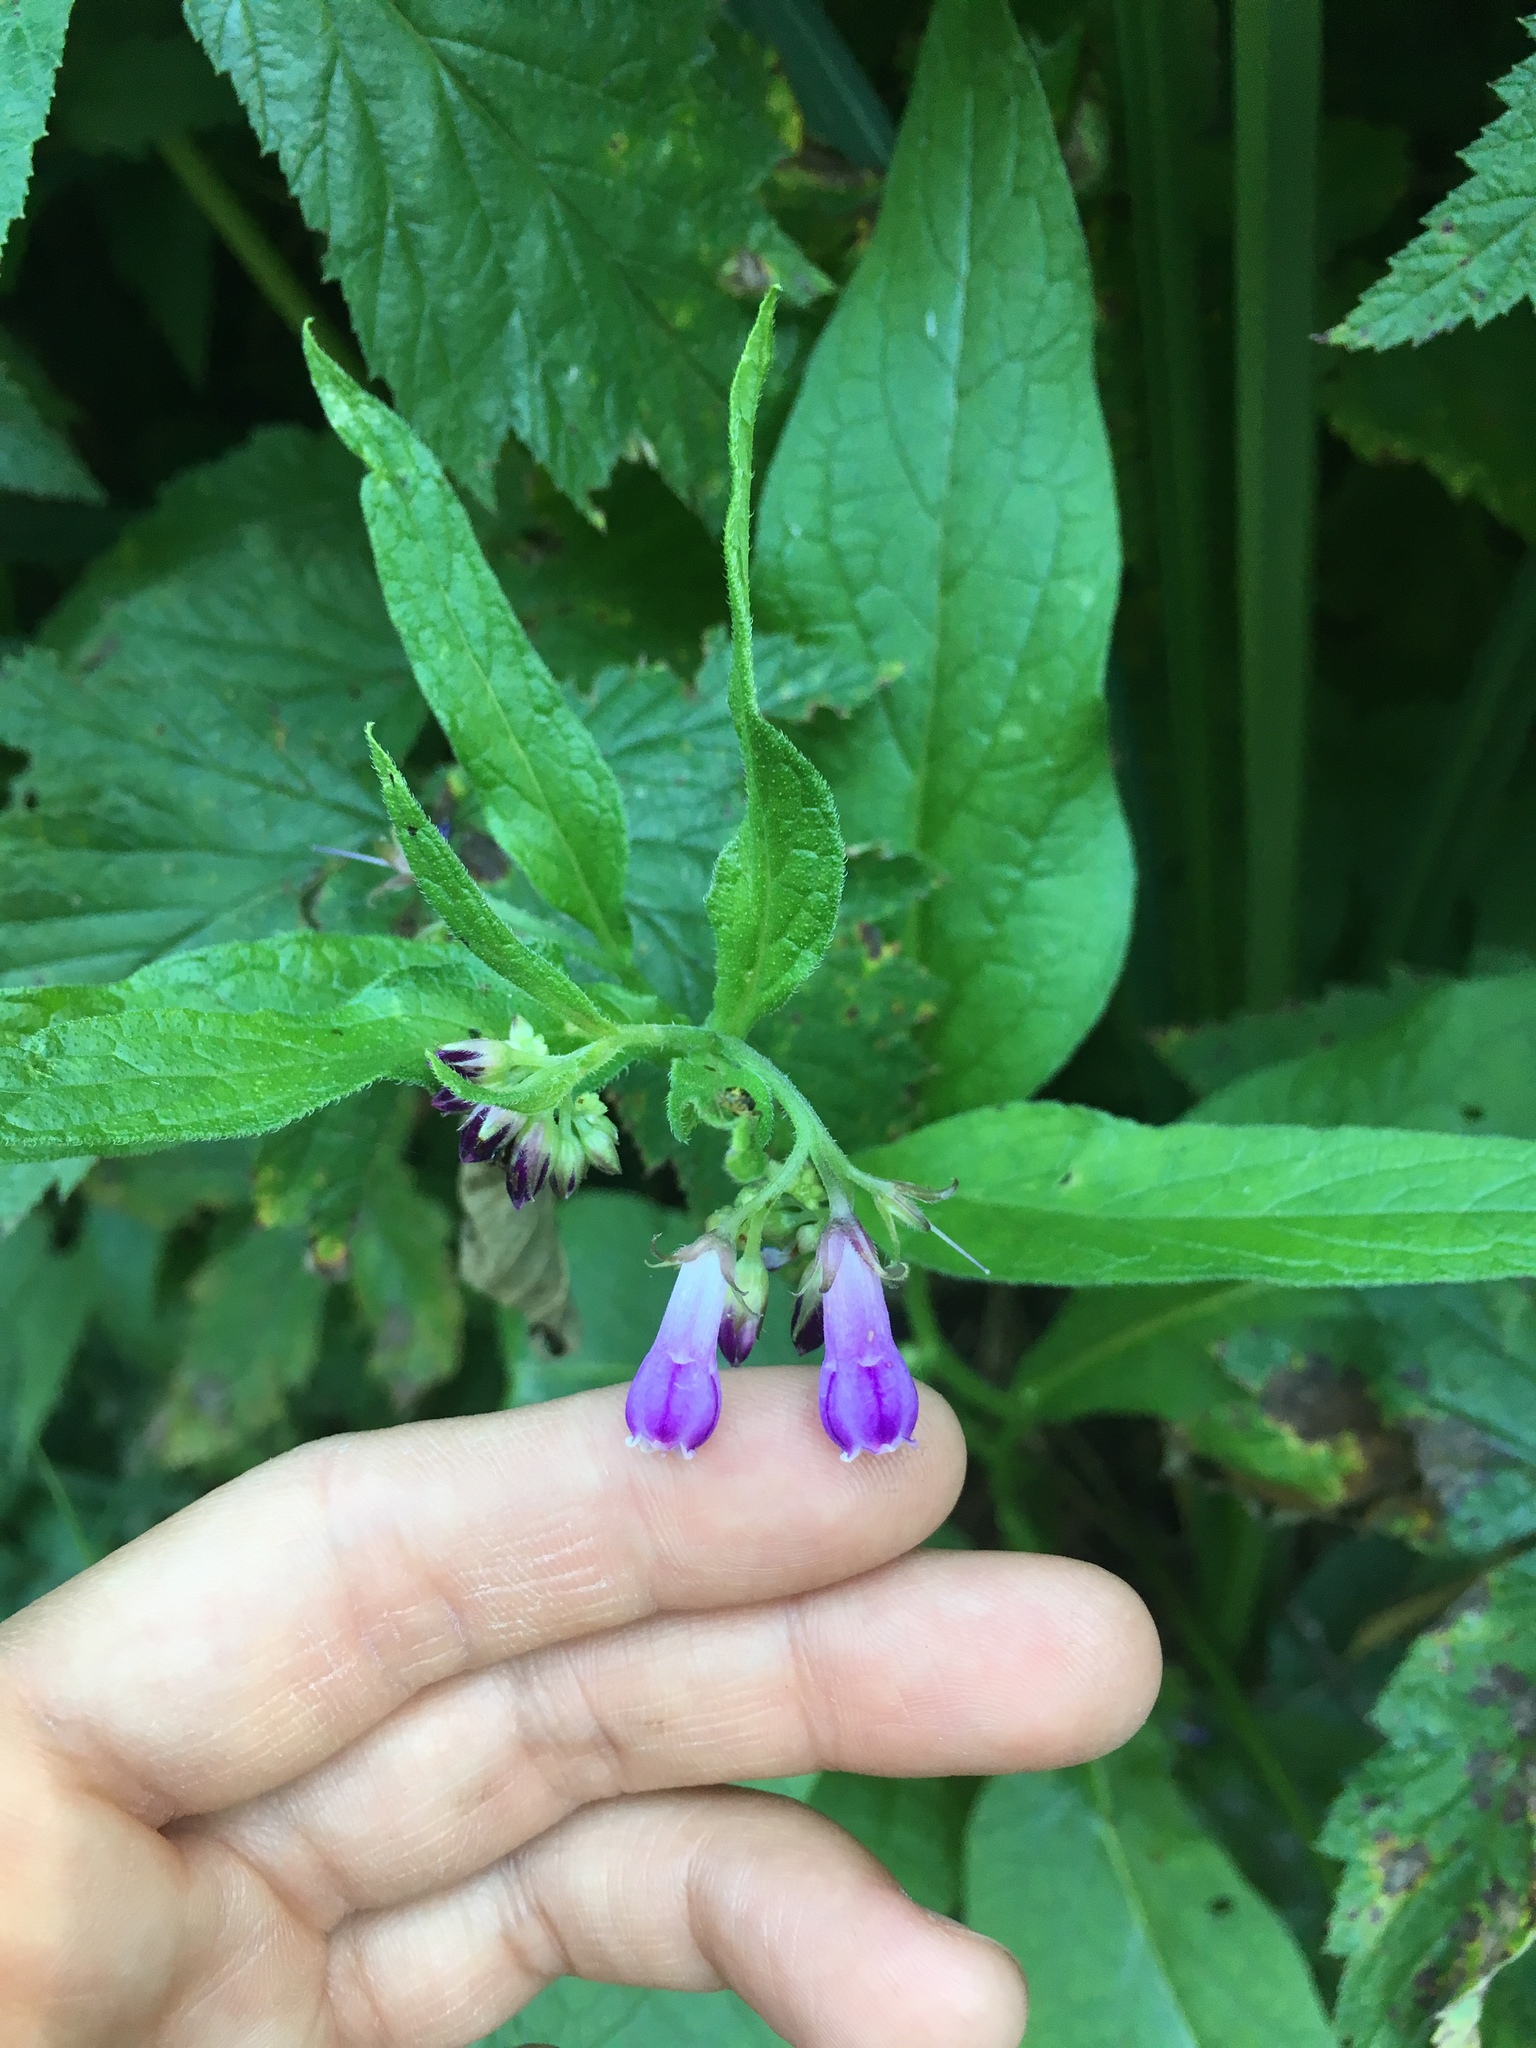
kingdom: Plantae
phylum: Tracheophyta
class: Magnoliopsida
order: Boraginales
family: Boraginaceae
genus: Symphytum
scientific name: Symphytum officinale
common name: Common comfrey
